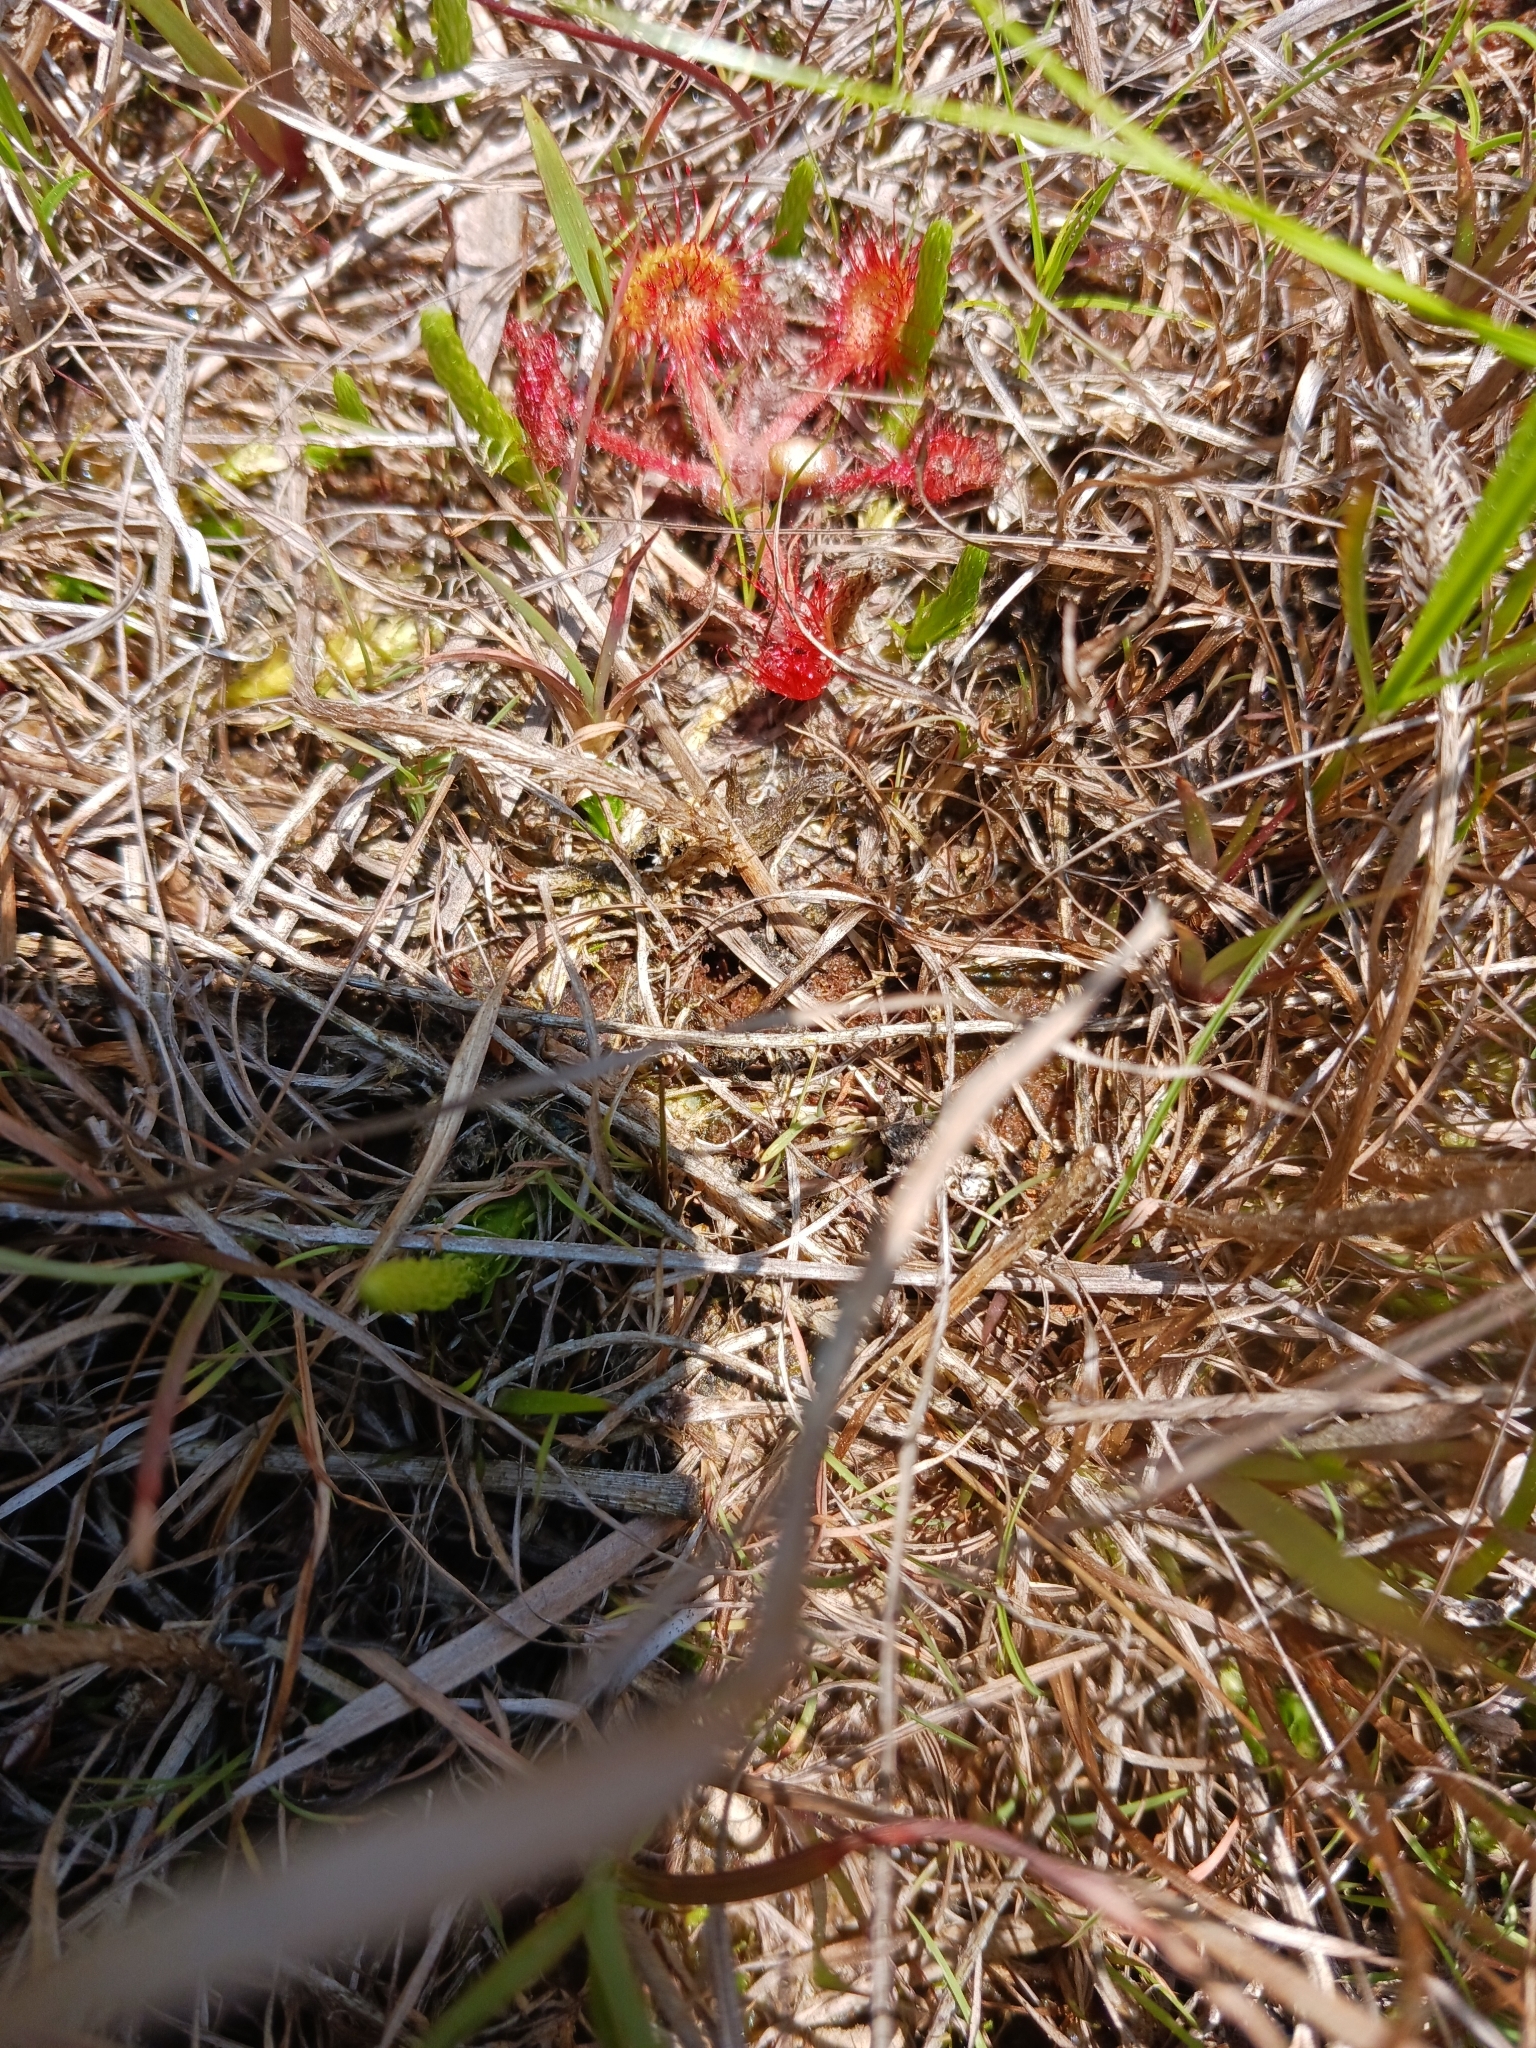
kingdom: Plantae
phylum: Tracheophyta
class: Magnoliopsida
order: Caryophyllales
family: Droseraceae
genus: Drosera
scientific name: Drosera rotundifolia
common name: Round-leaved sundew
